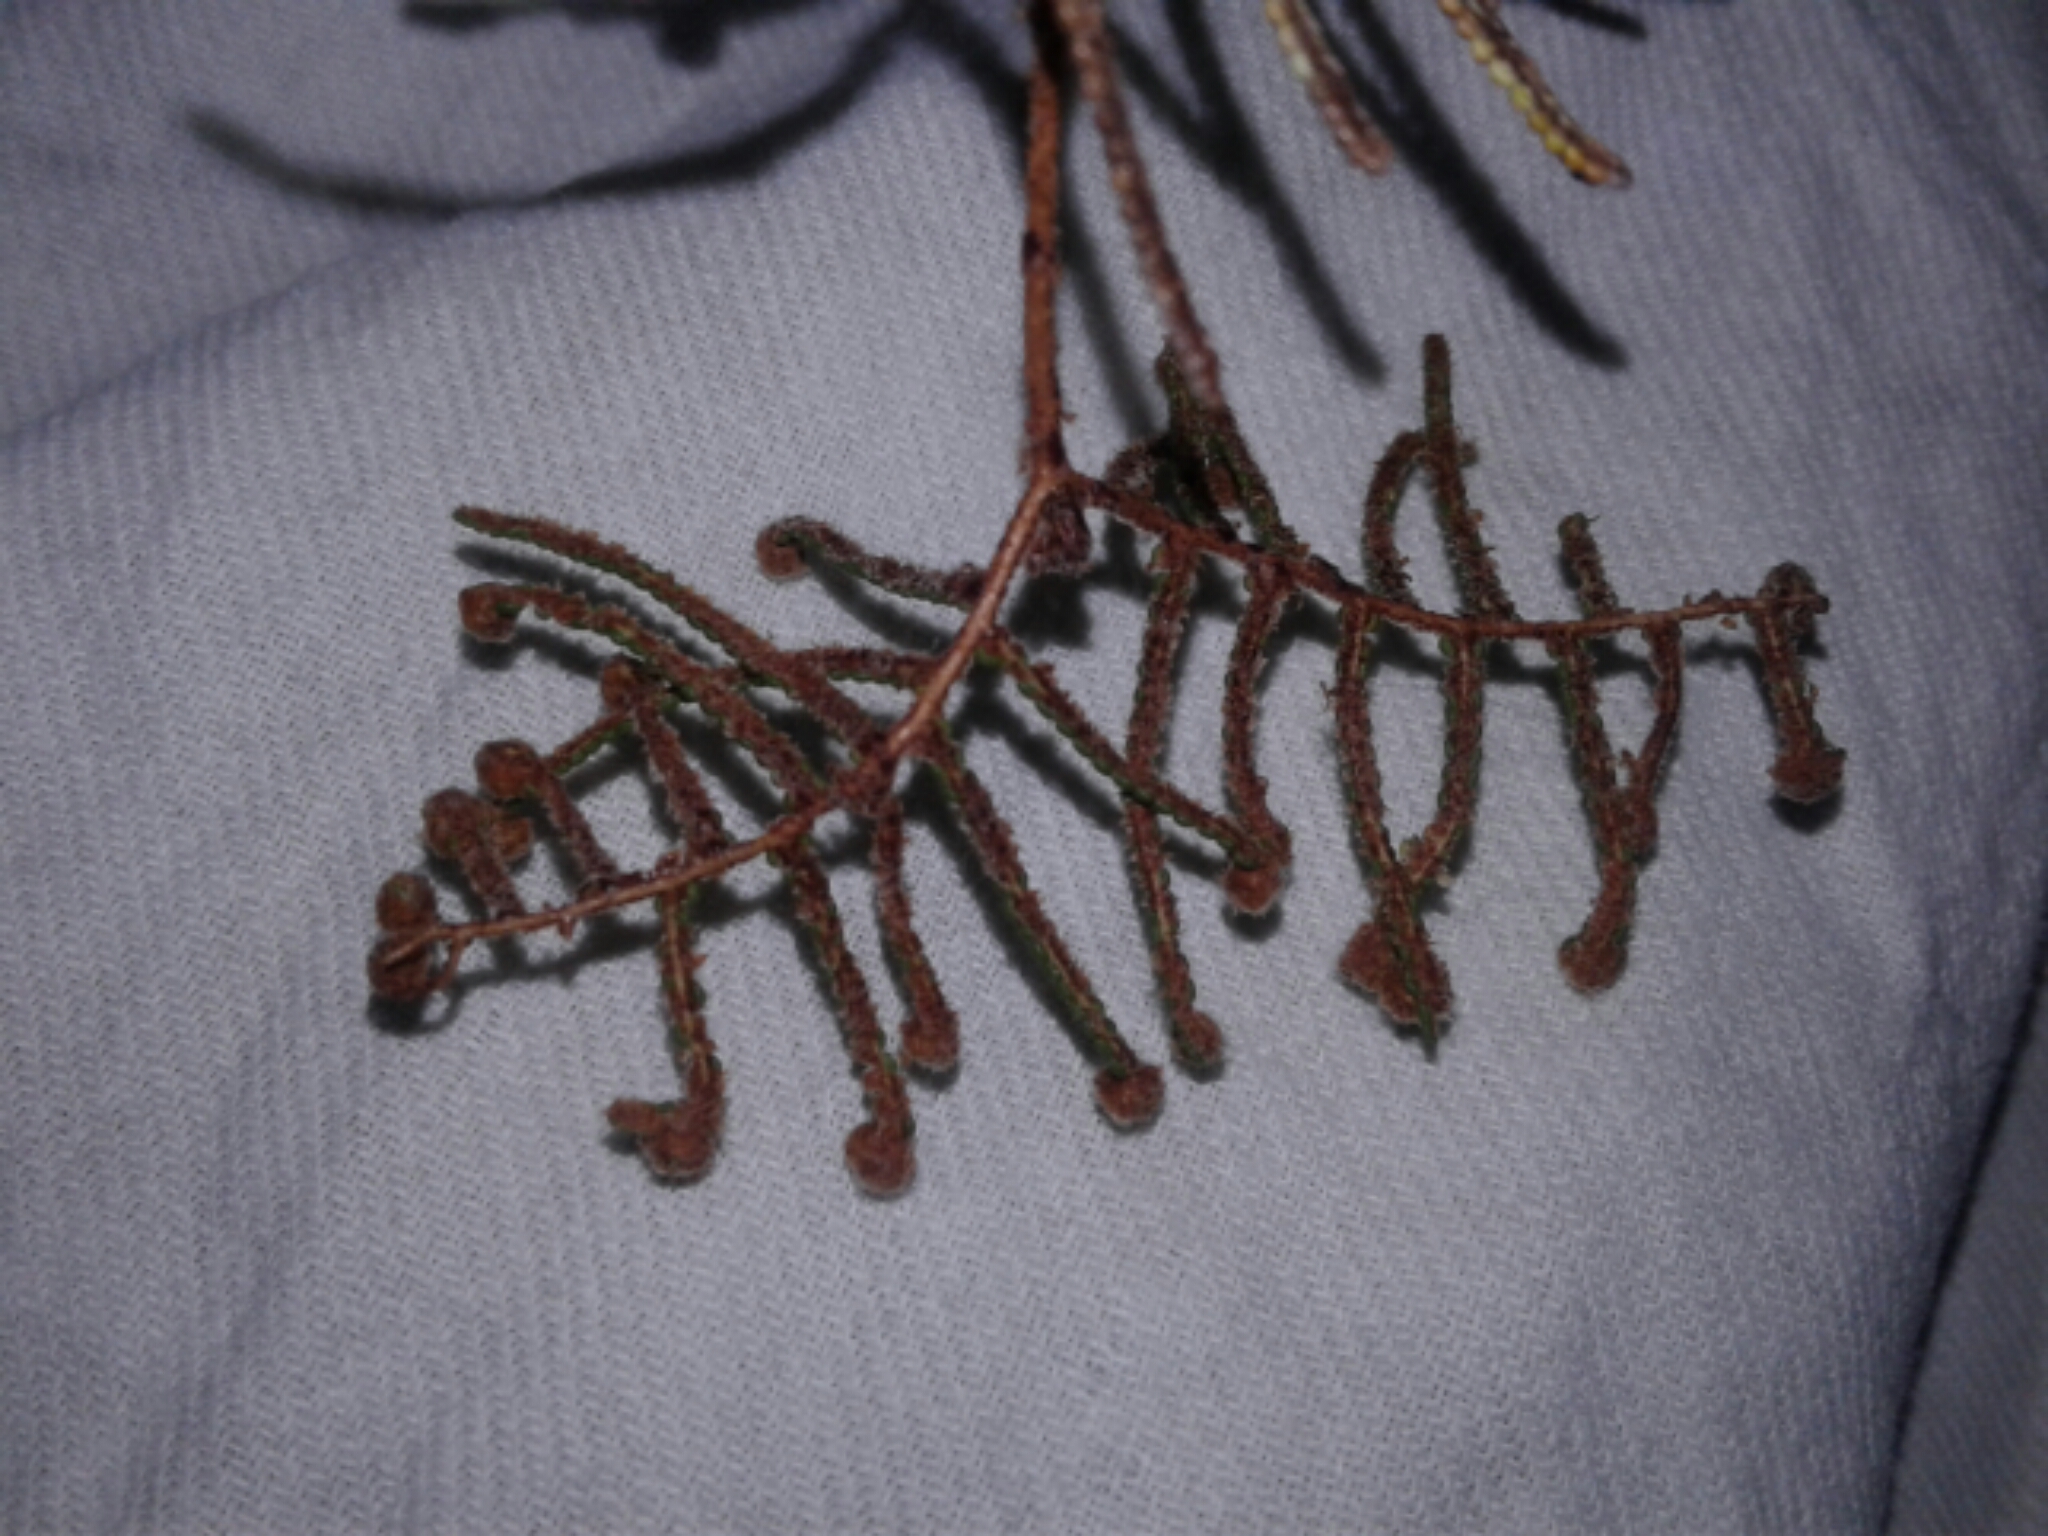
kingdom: Plantae
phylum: Tracheophyta
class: Polypodiopsida
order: Gleicheniales
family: Gleicheniaceae
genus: Gleichenia
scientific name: Gleichenia alpina
